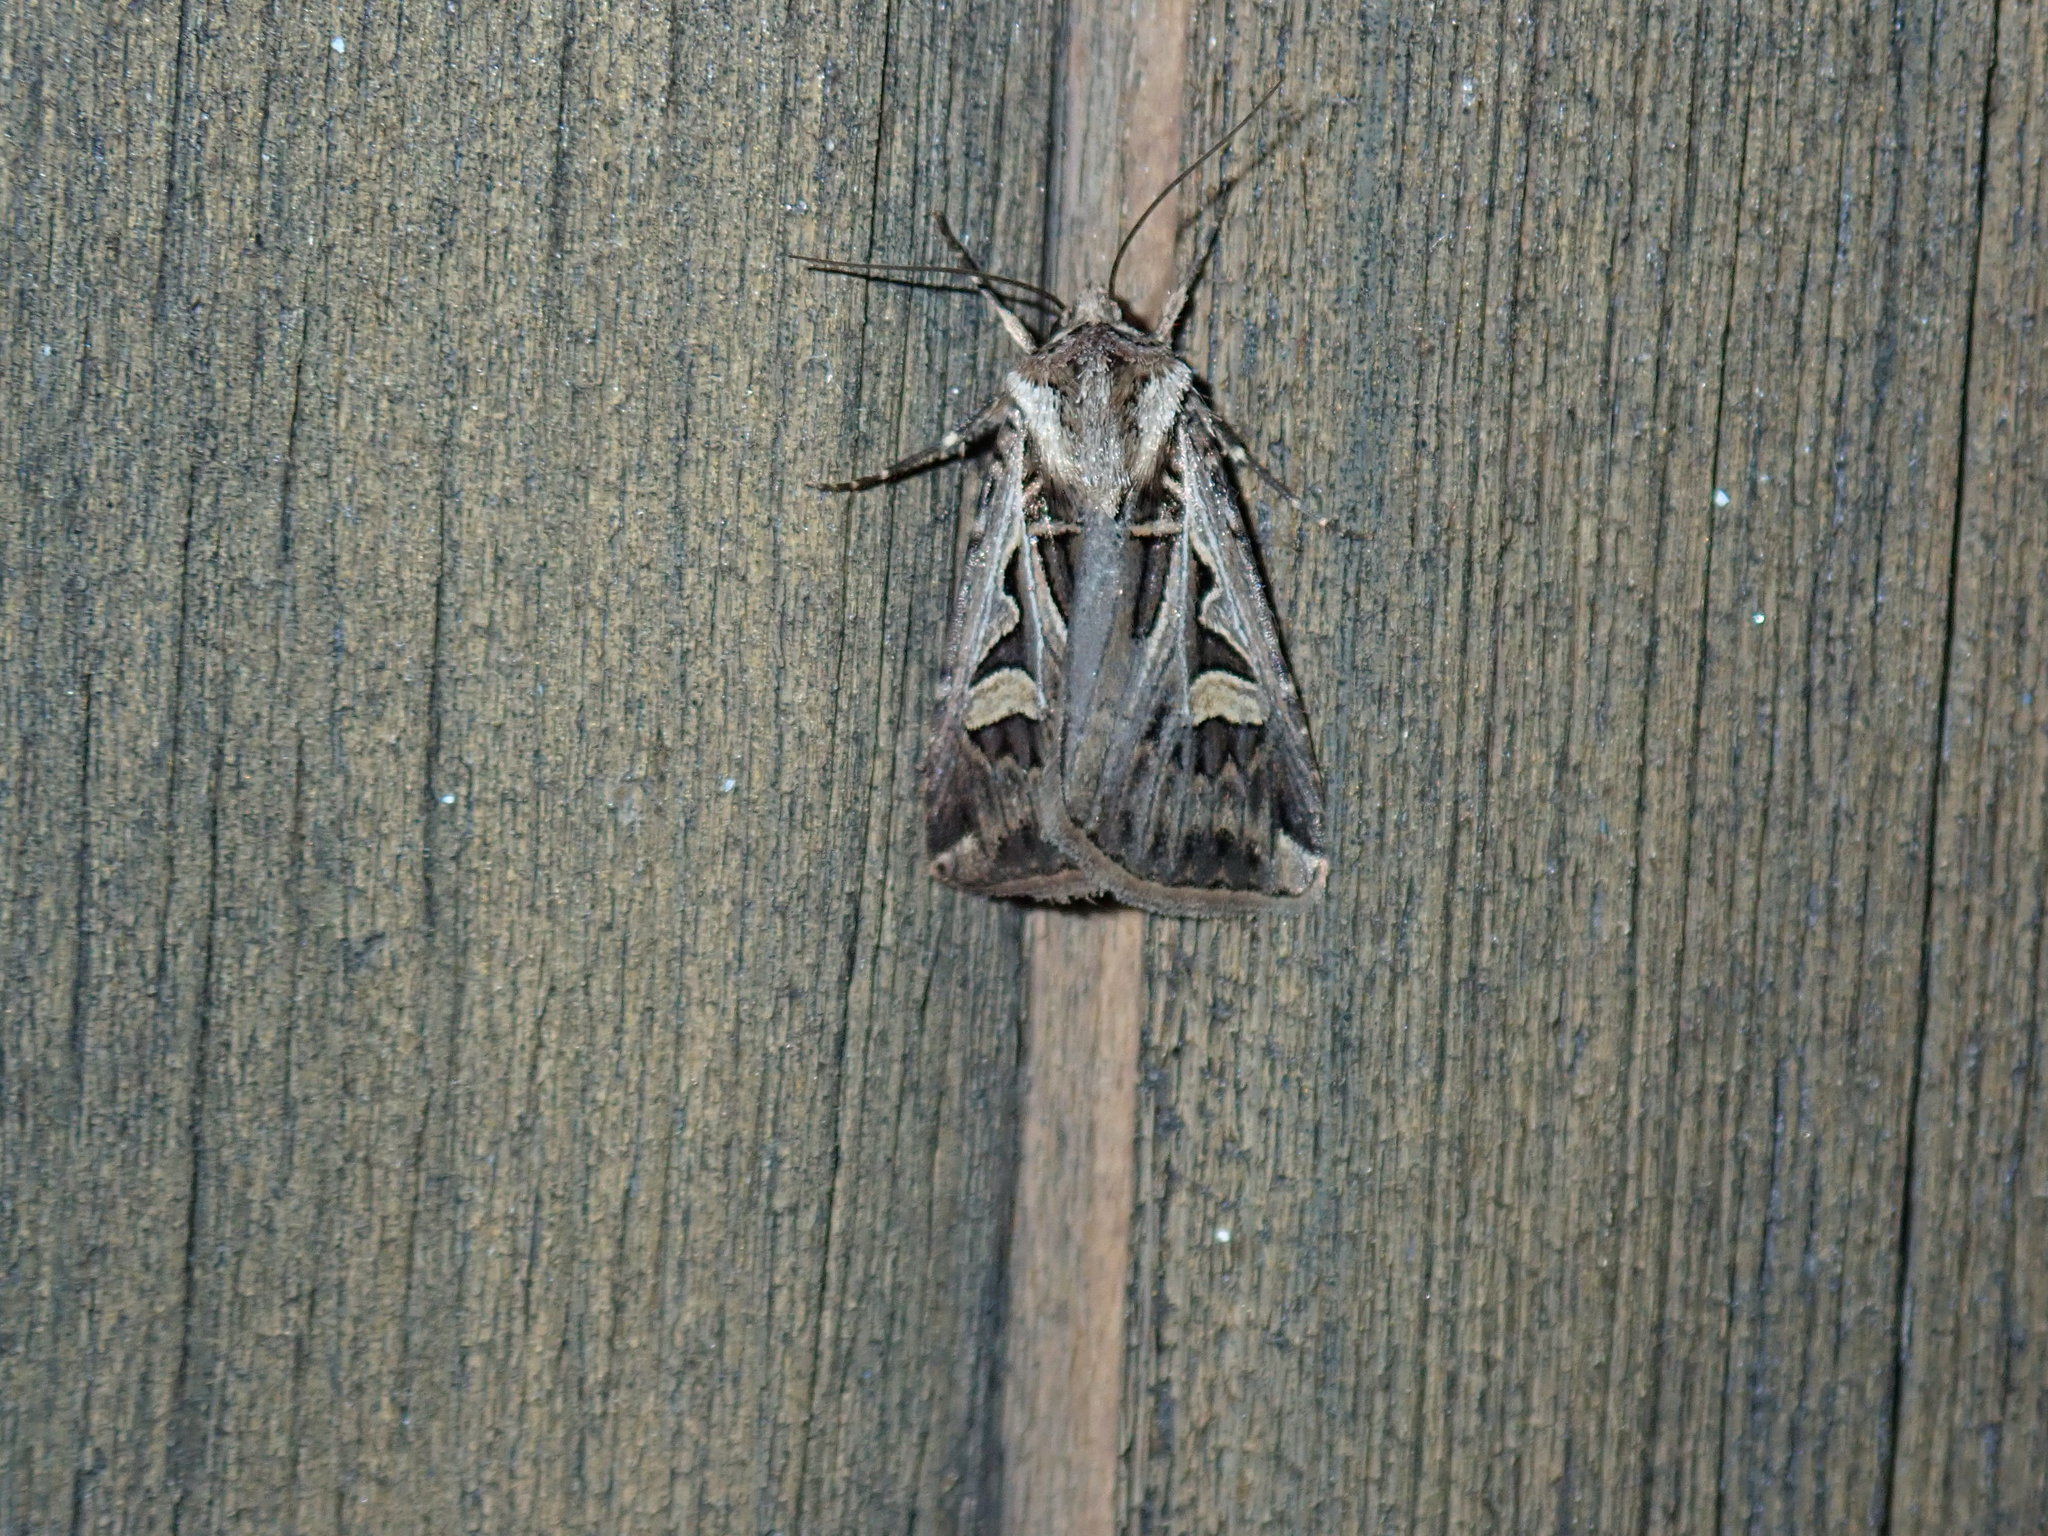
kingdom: Animalia
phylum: Arthropoda
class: Insecta
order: Lepidoptera
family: Noctuidae
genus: Feltia
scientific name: Feltia jaculifera
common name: Dingy cutworm moth
